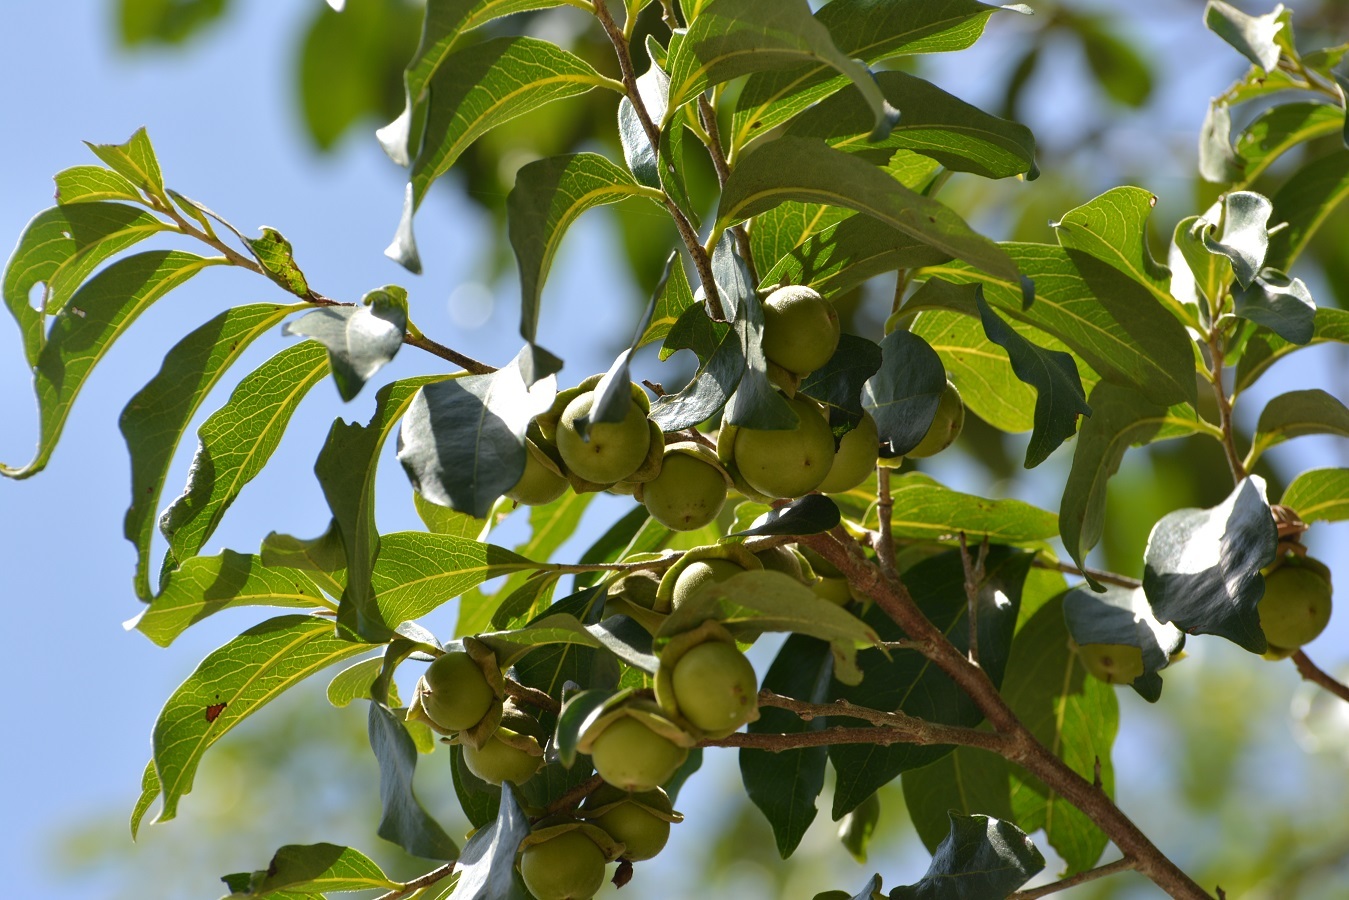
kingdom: Plantae
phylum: Tracheophyta
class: Magnoliopsida
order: Ericales
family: Ebenaceae
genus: Diospyros
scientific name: Diospyros salicifolia
